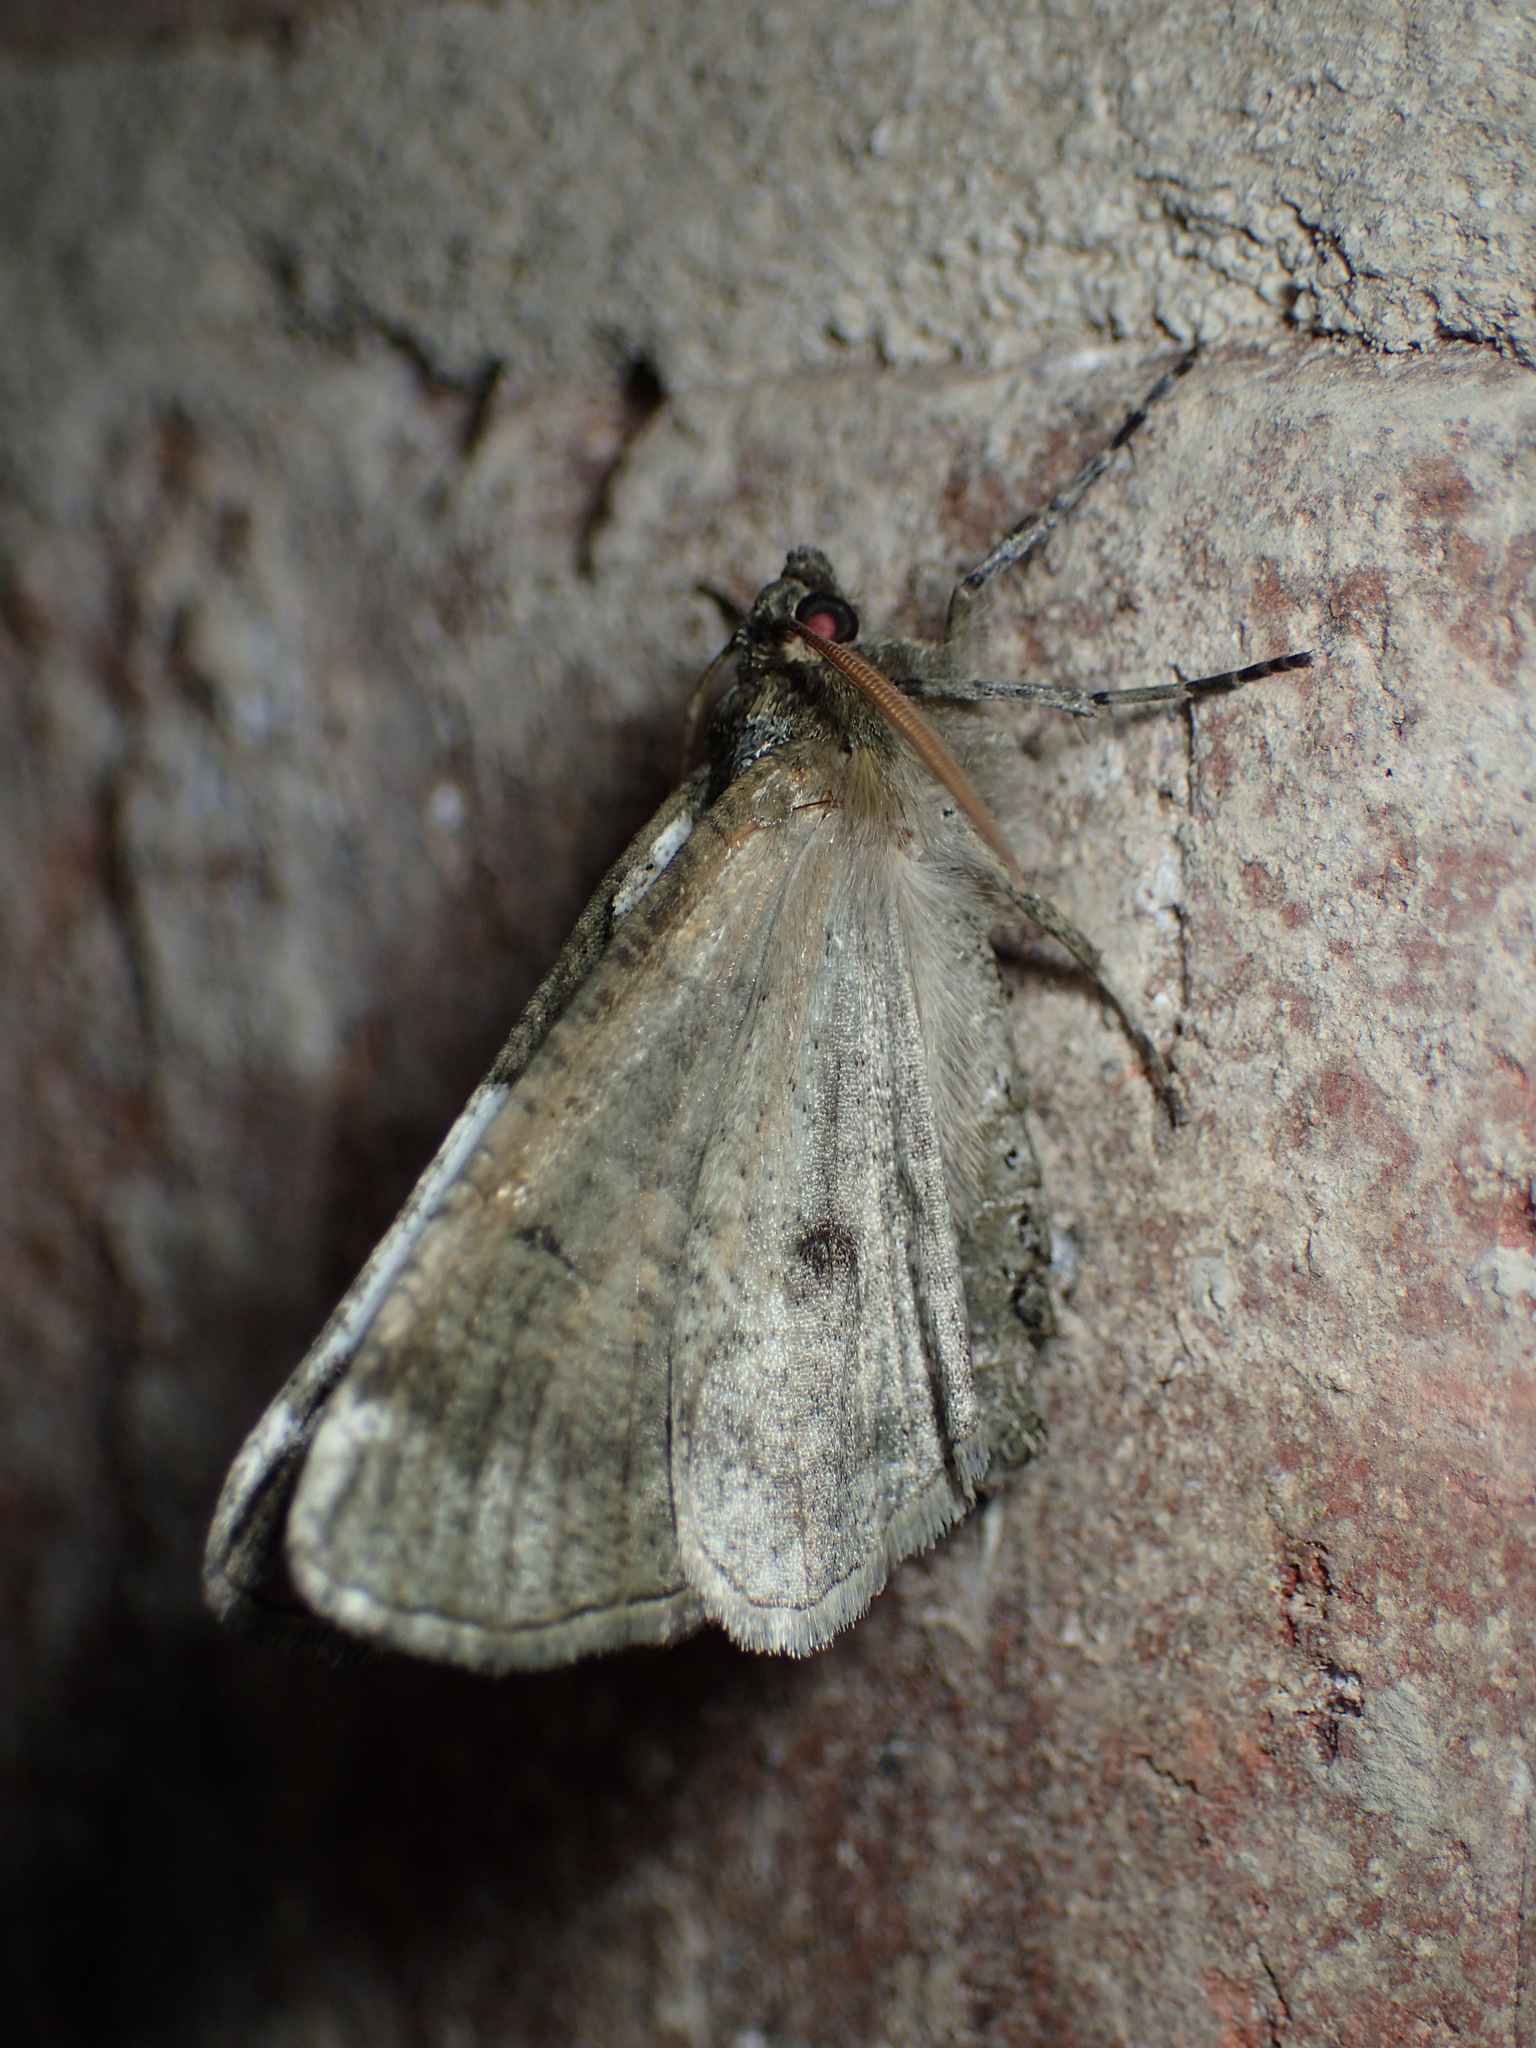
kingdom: Animalia
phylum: Arthropoda
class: Insecta
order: Lepidoptera
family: Geometridae
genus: Ceratonyx
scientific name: Ceratonyx satanaria
